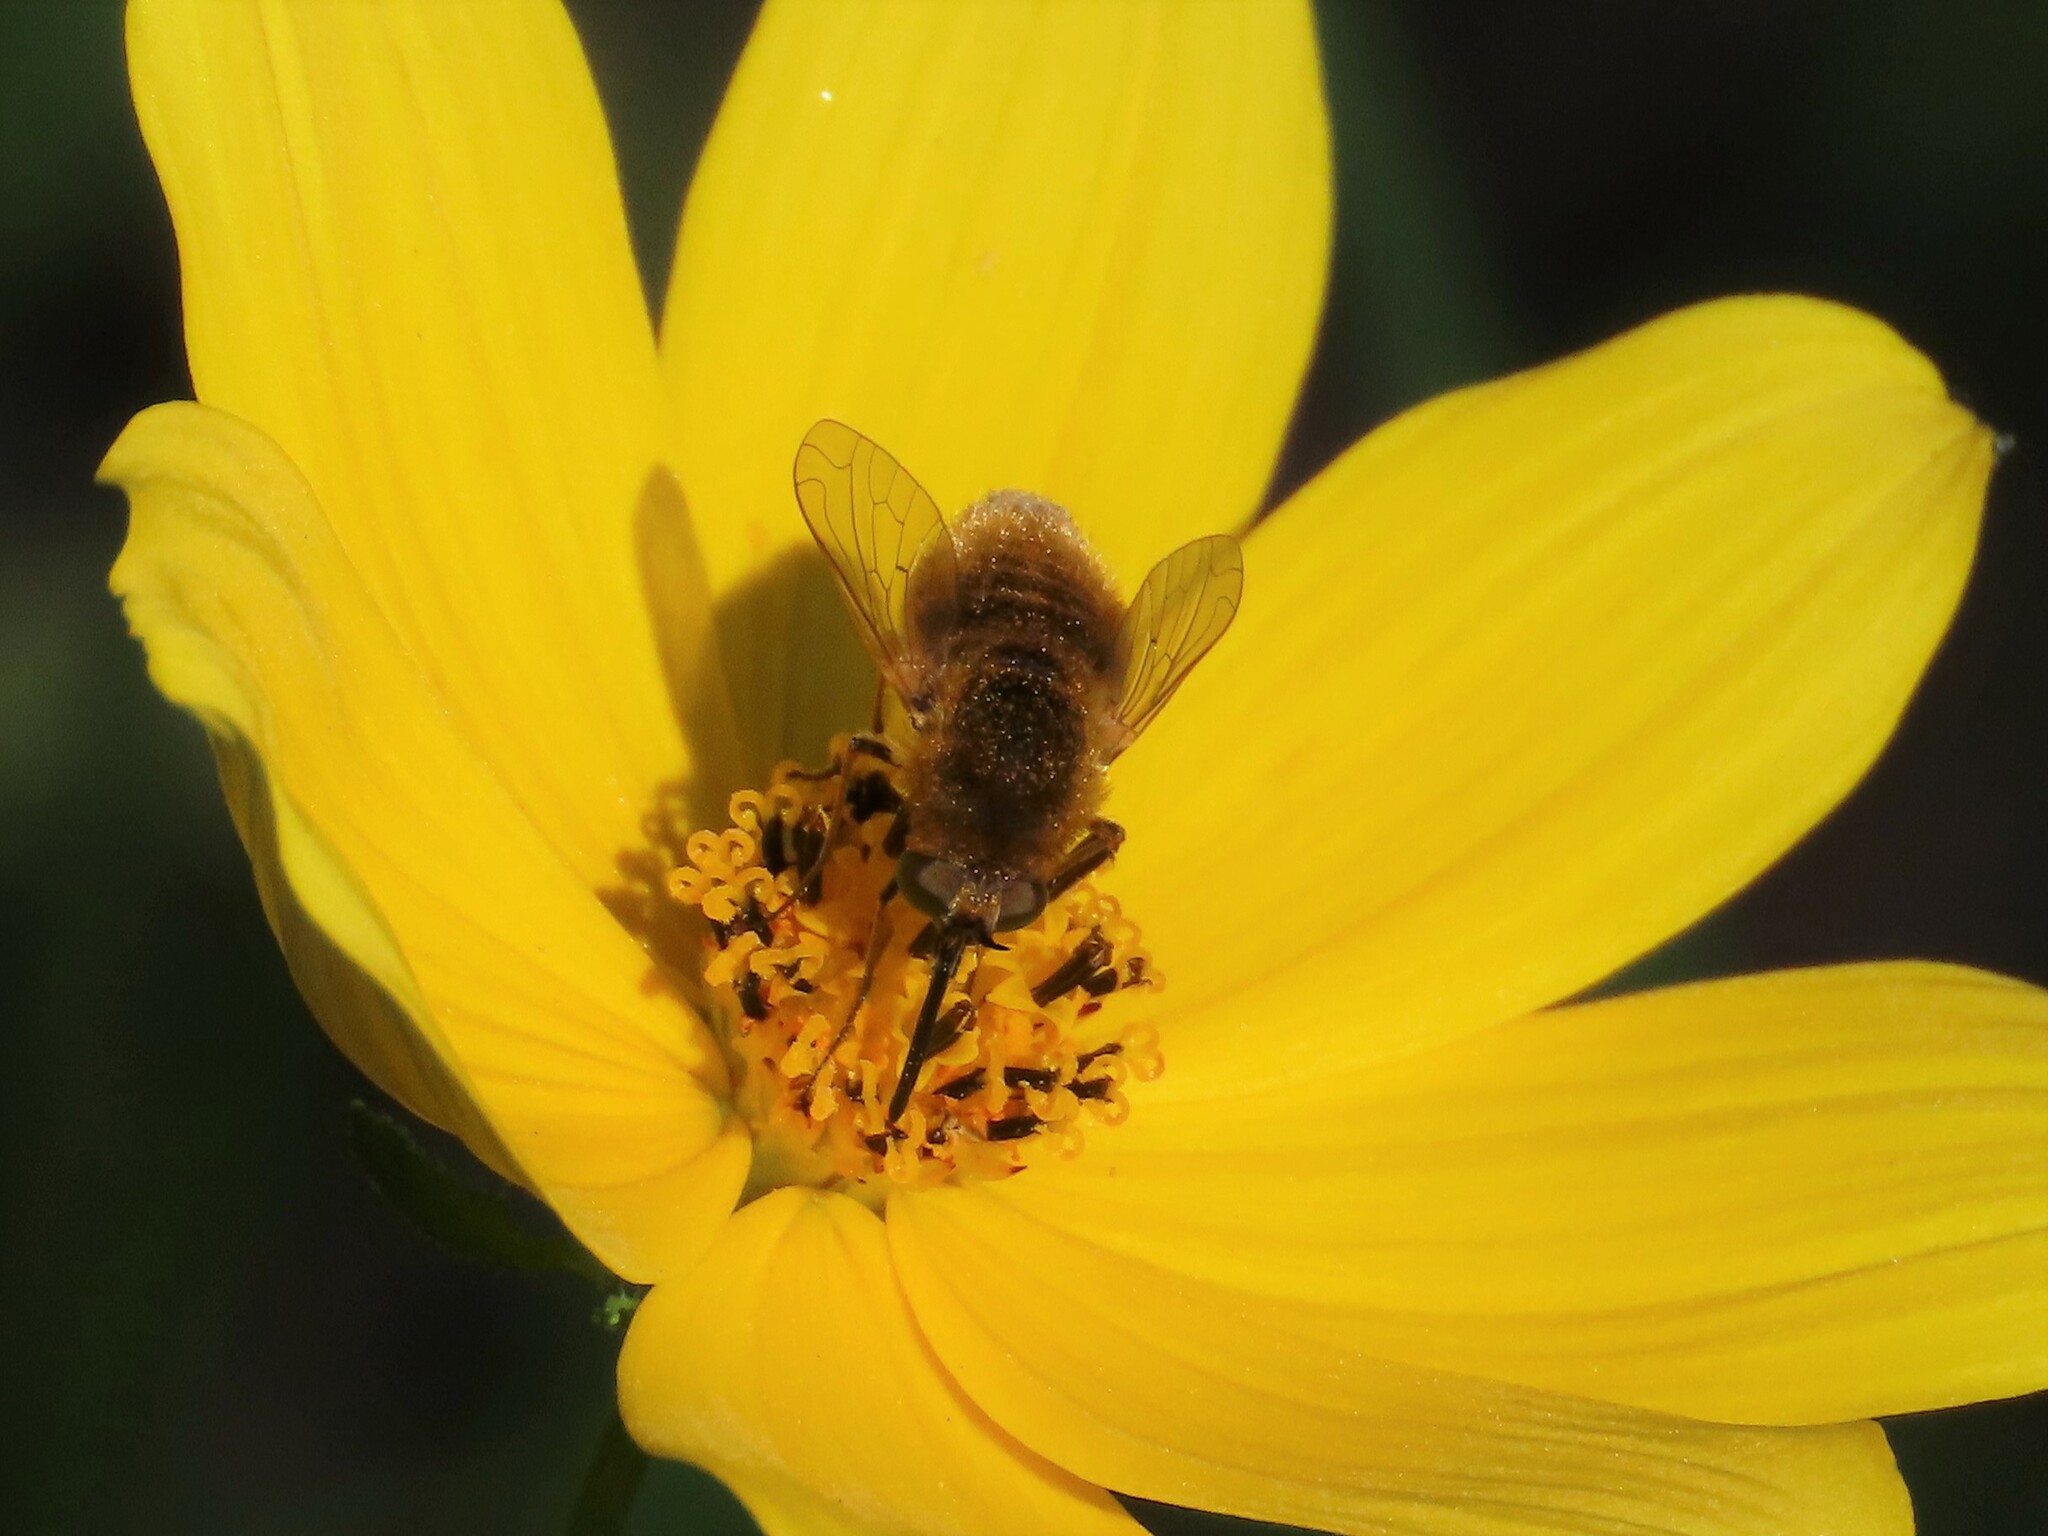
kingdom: Animalia
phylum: Arthropoda
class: Insecta
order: Diptera
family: Bombyliidae
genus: Sparnopolius
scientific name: Sparnopolius confusus
